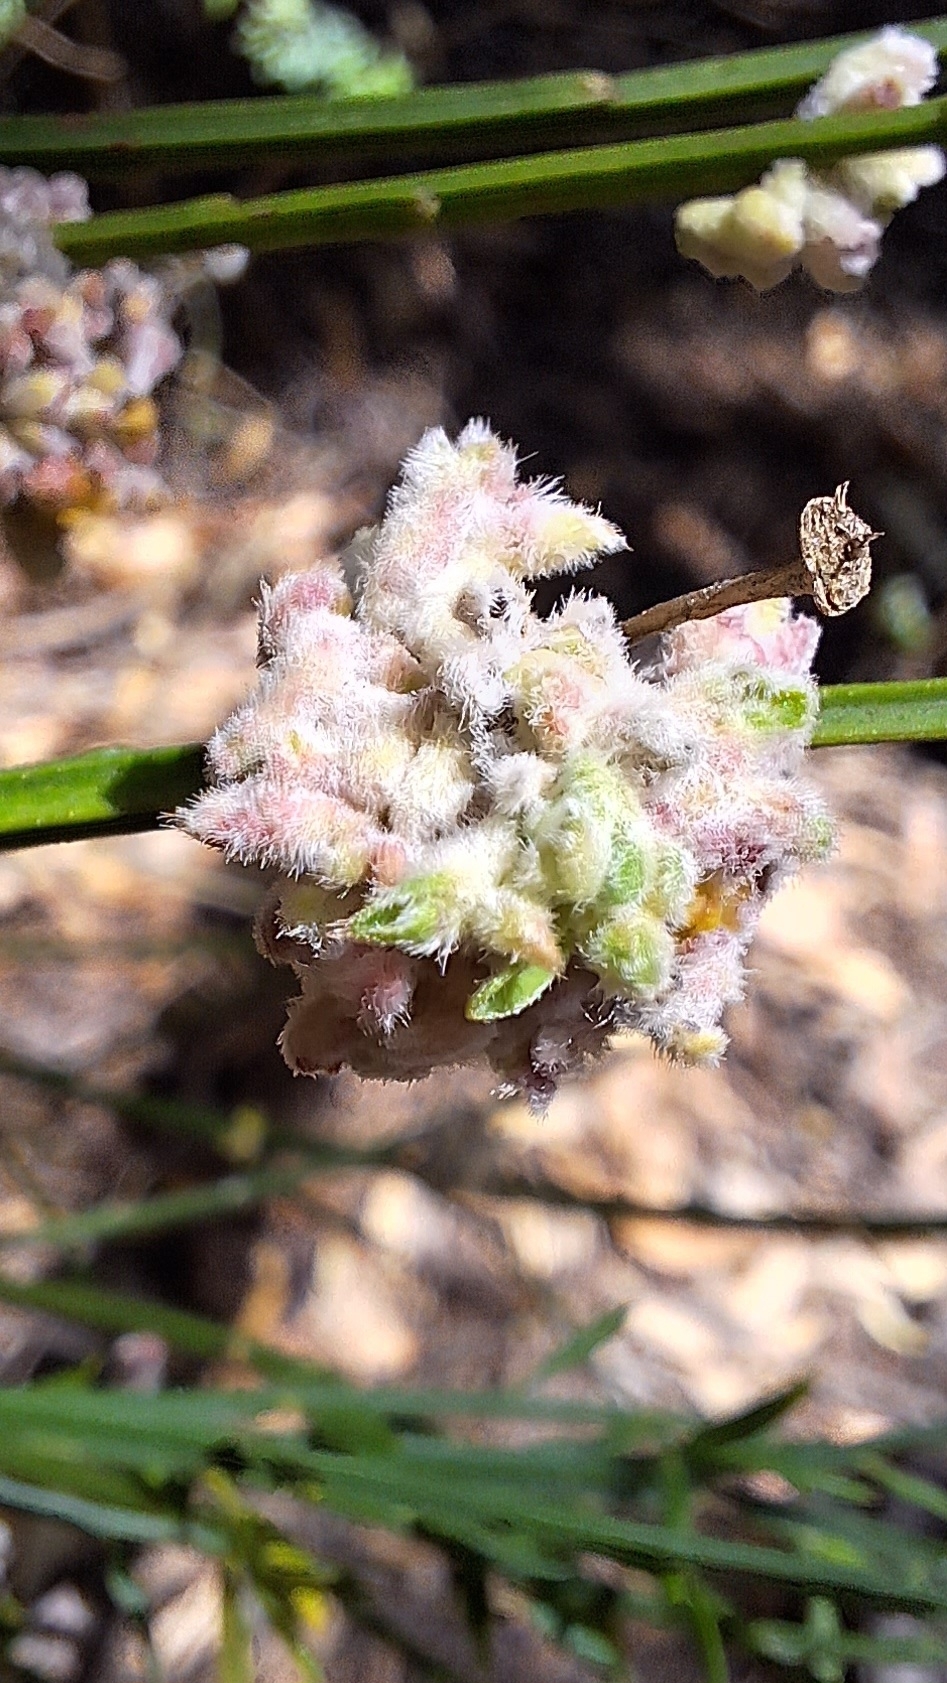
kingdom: Animalia
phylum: Arthropoda
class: Arachnida
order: Trombidiformes
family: Eriophyidae
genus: Aceria
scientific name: Aceria genistae
